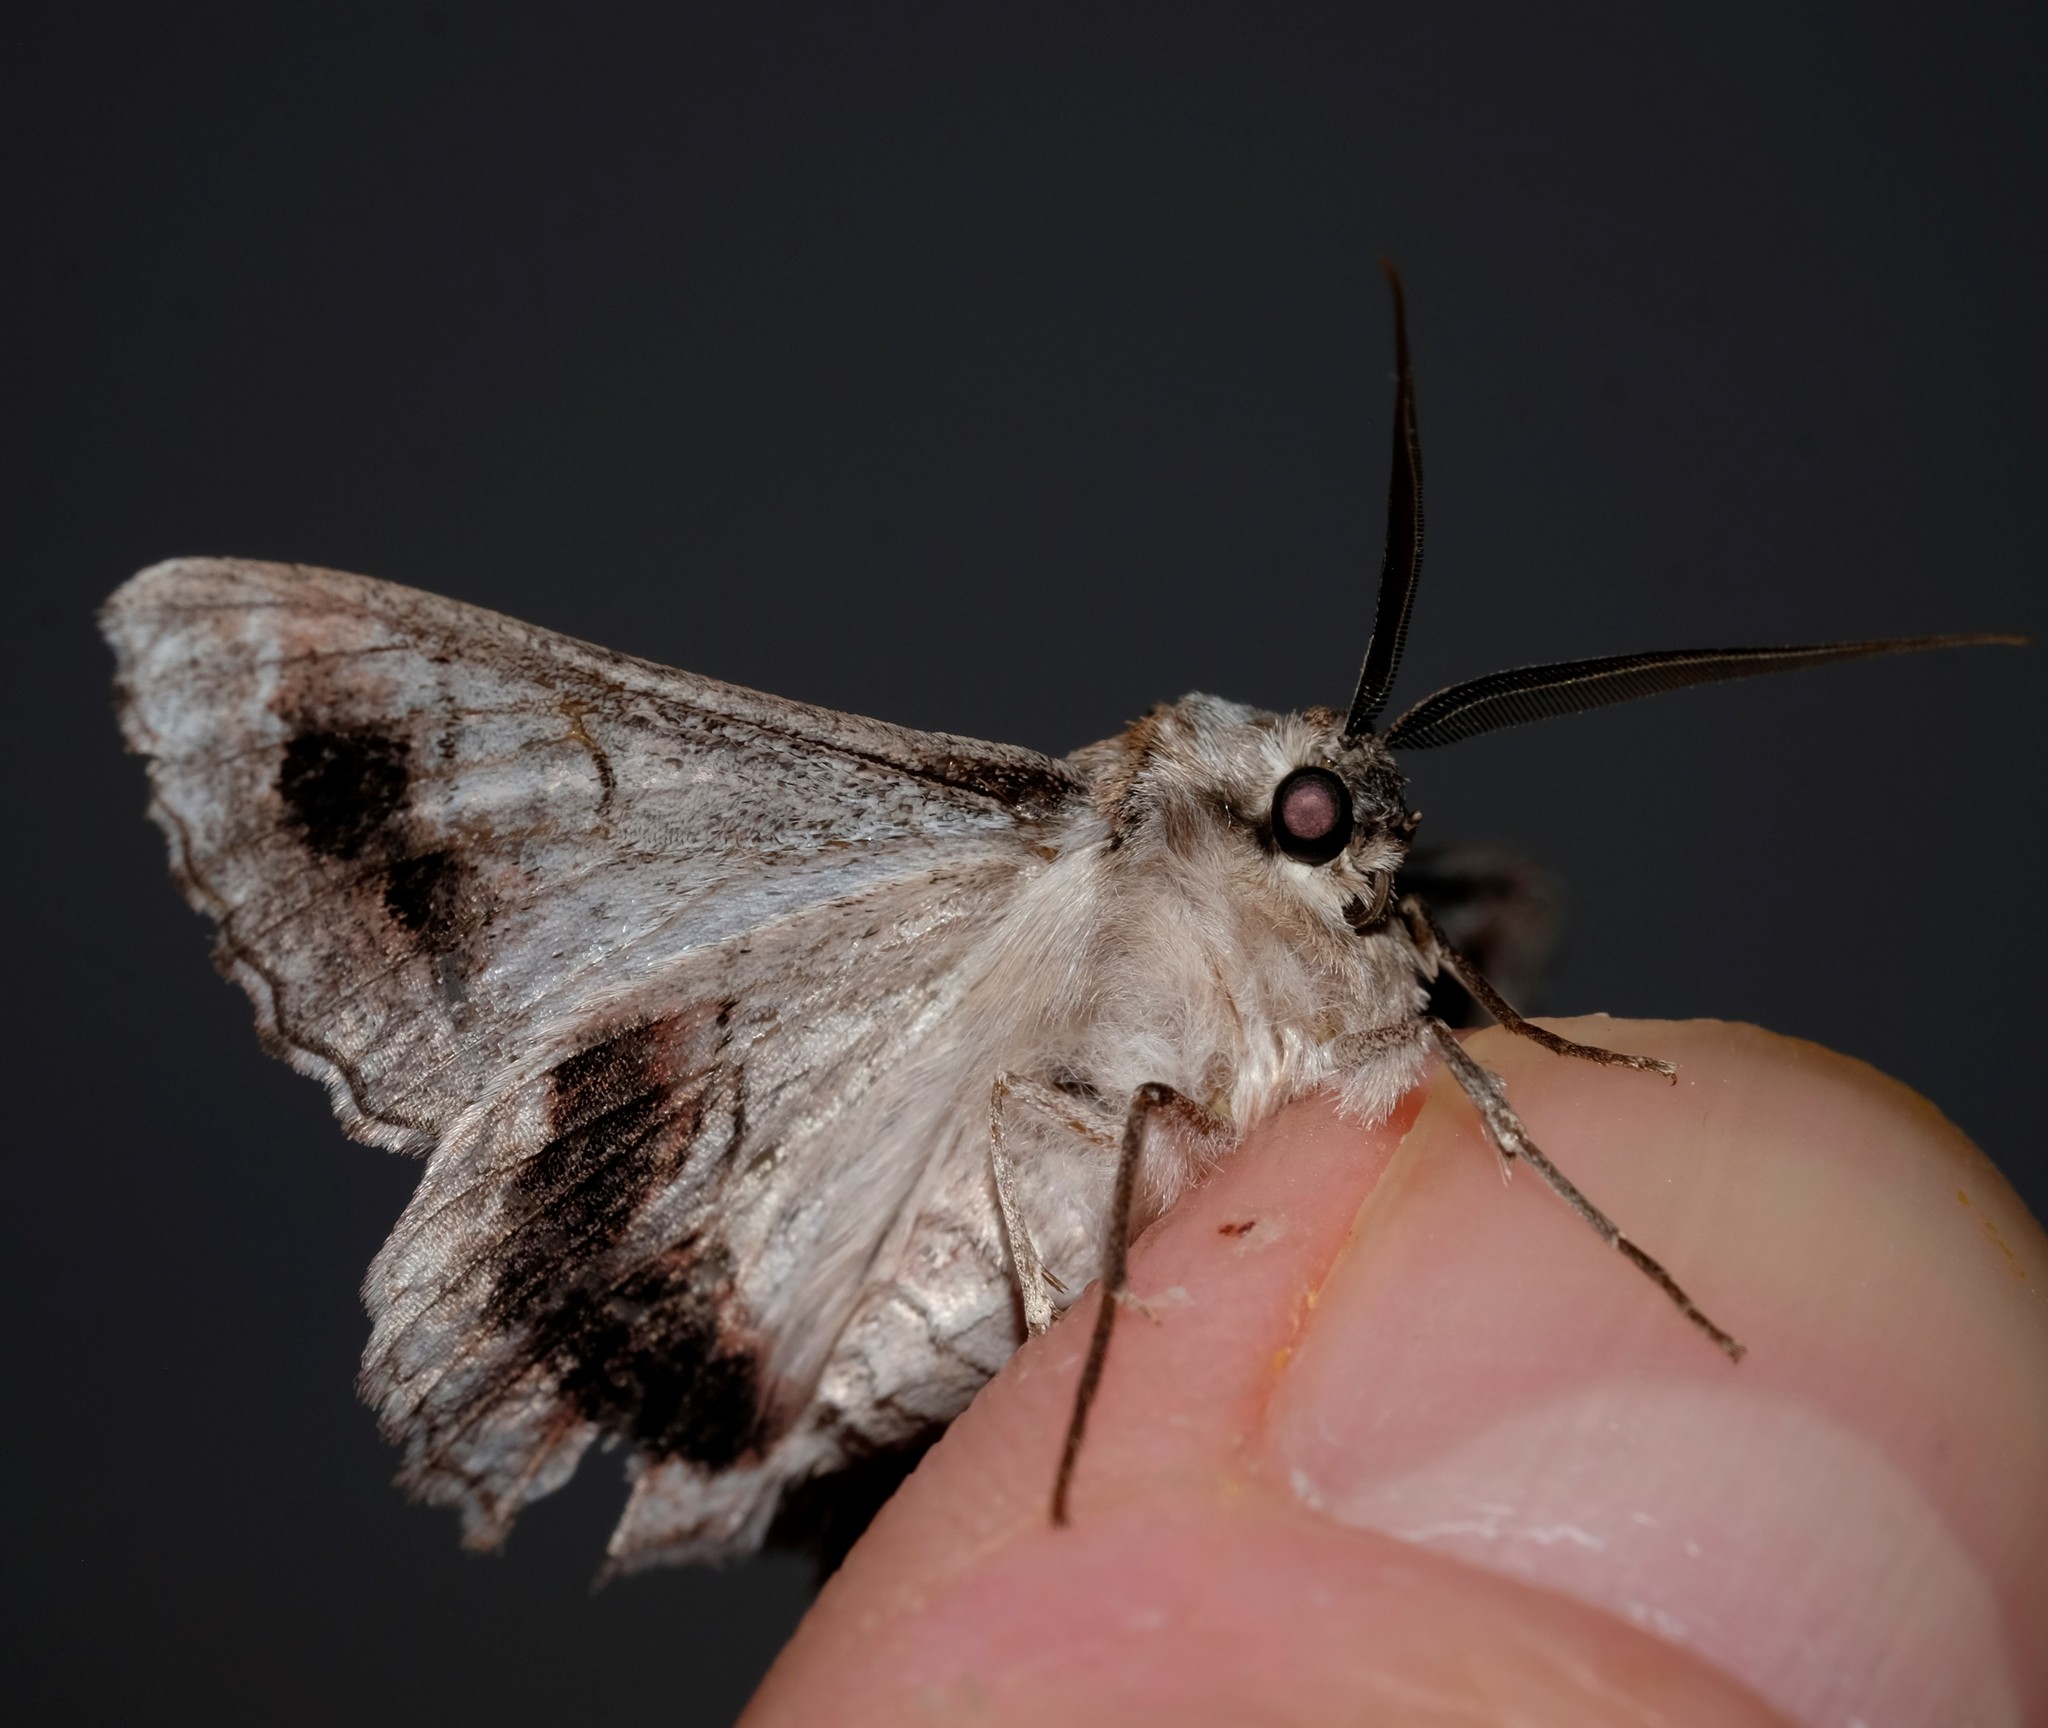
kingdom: Animalia
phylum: Arthropoda
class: Insecta
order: Lepidoptera
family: Geometridae
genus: Hypobapta
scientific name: Hypobapta tachyhalotaria
